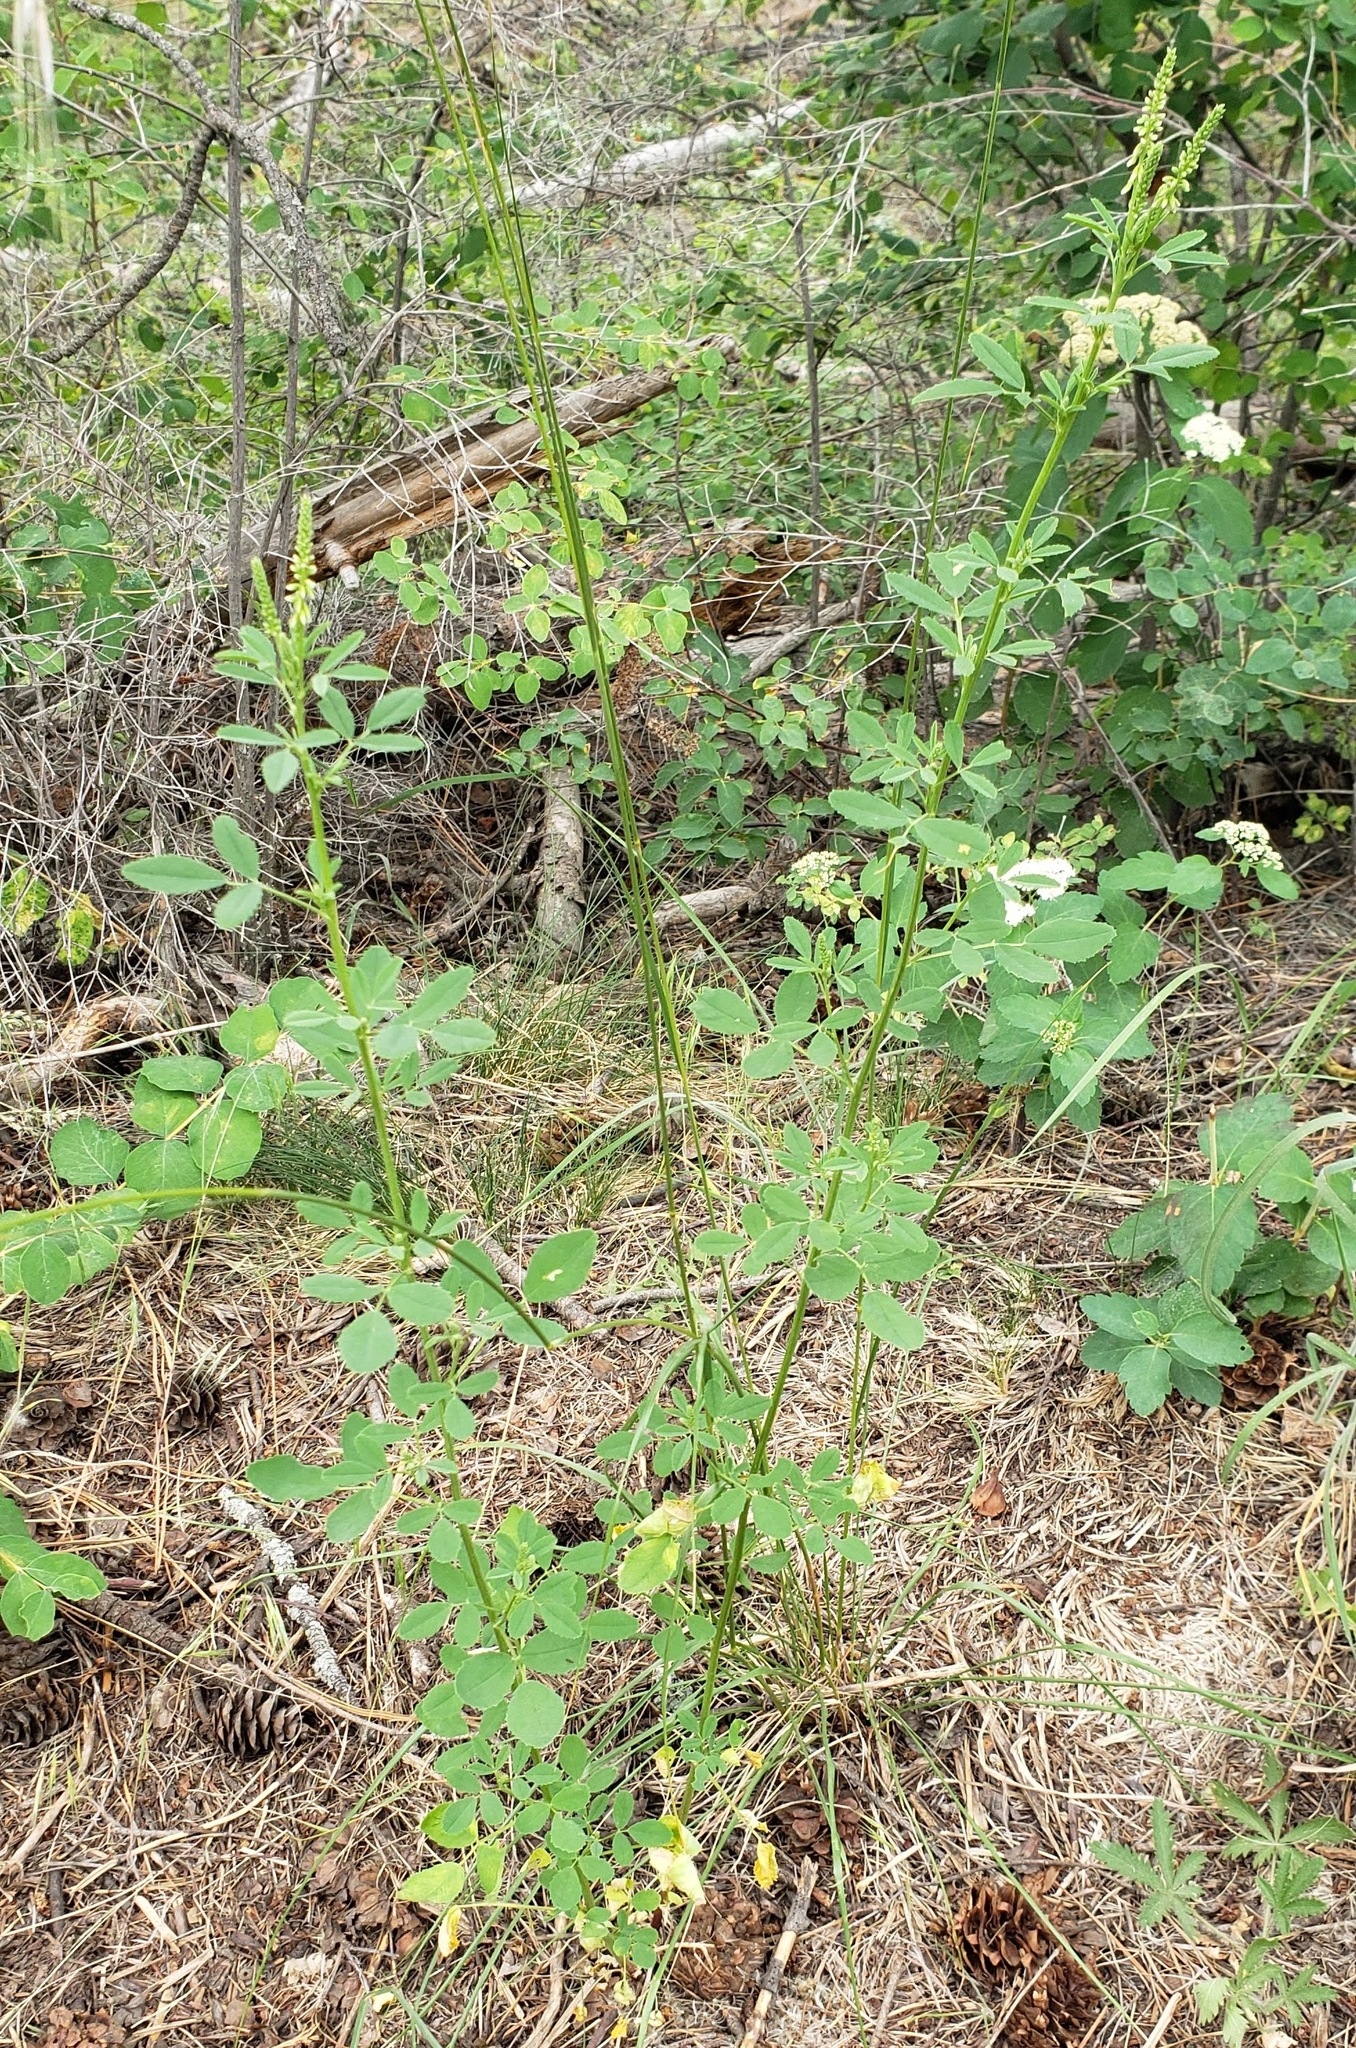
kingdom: Plantae
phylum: Tracheophyta
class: Magnoliopsida
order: Fabales
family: Fabaceae
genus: Melilotus
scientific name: Melilotus albus
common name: White melilot
